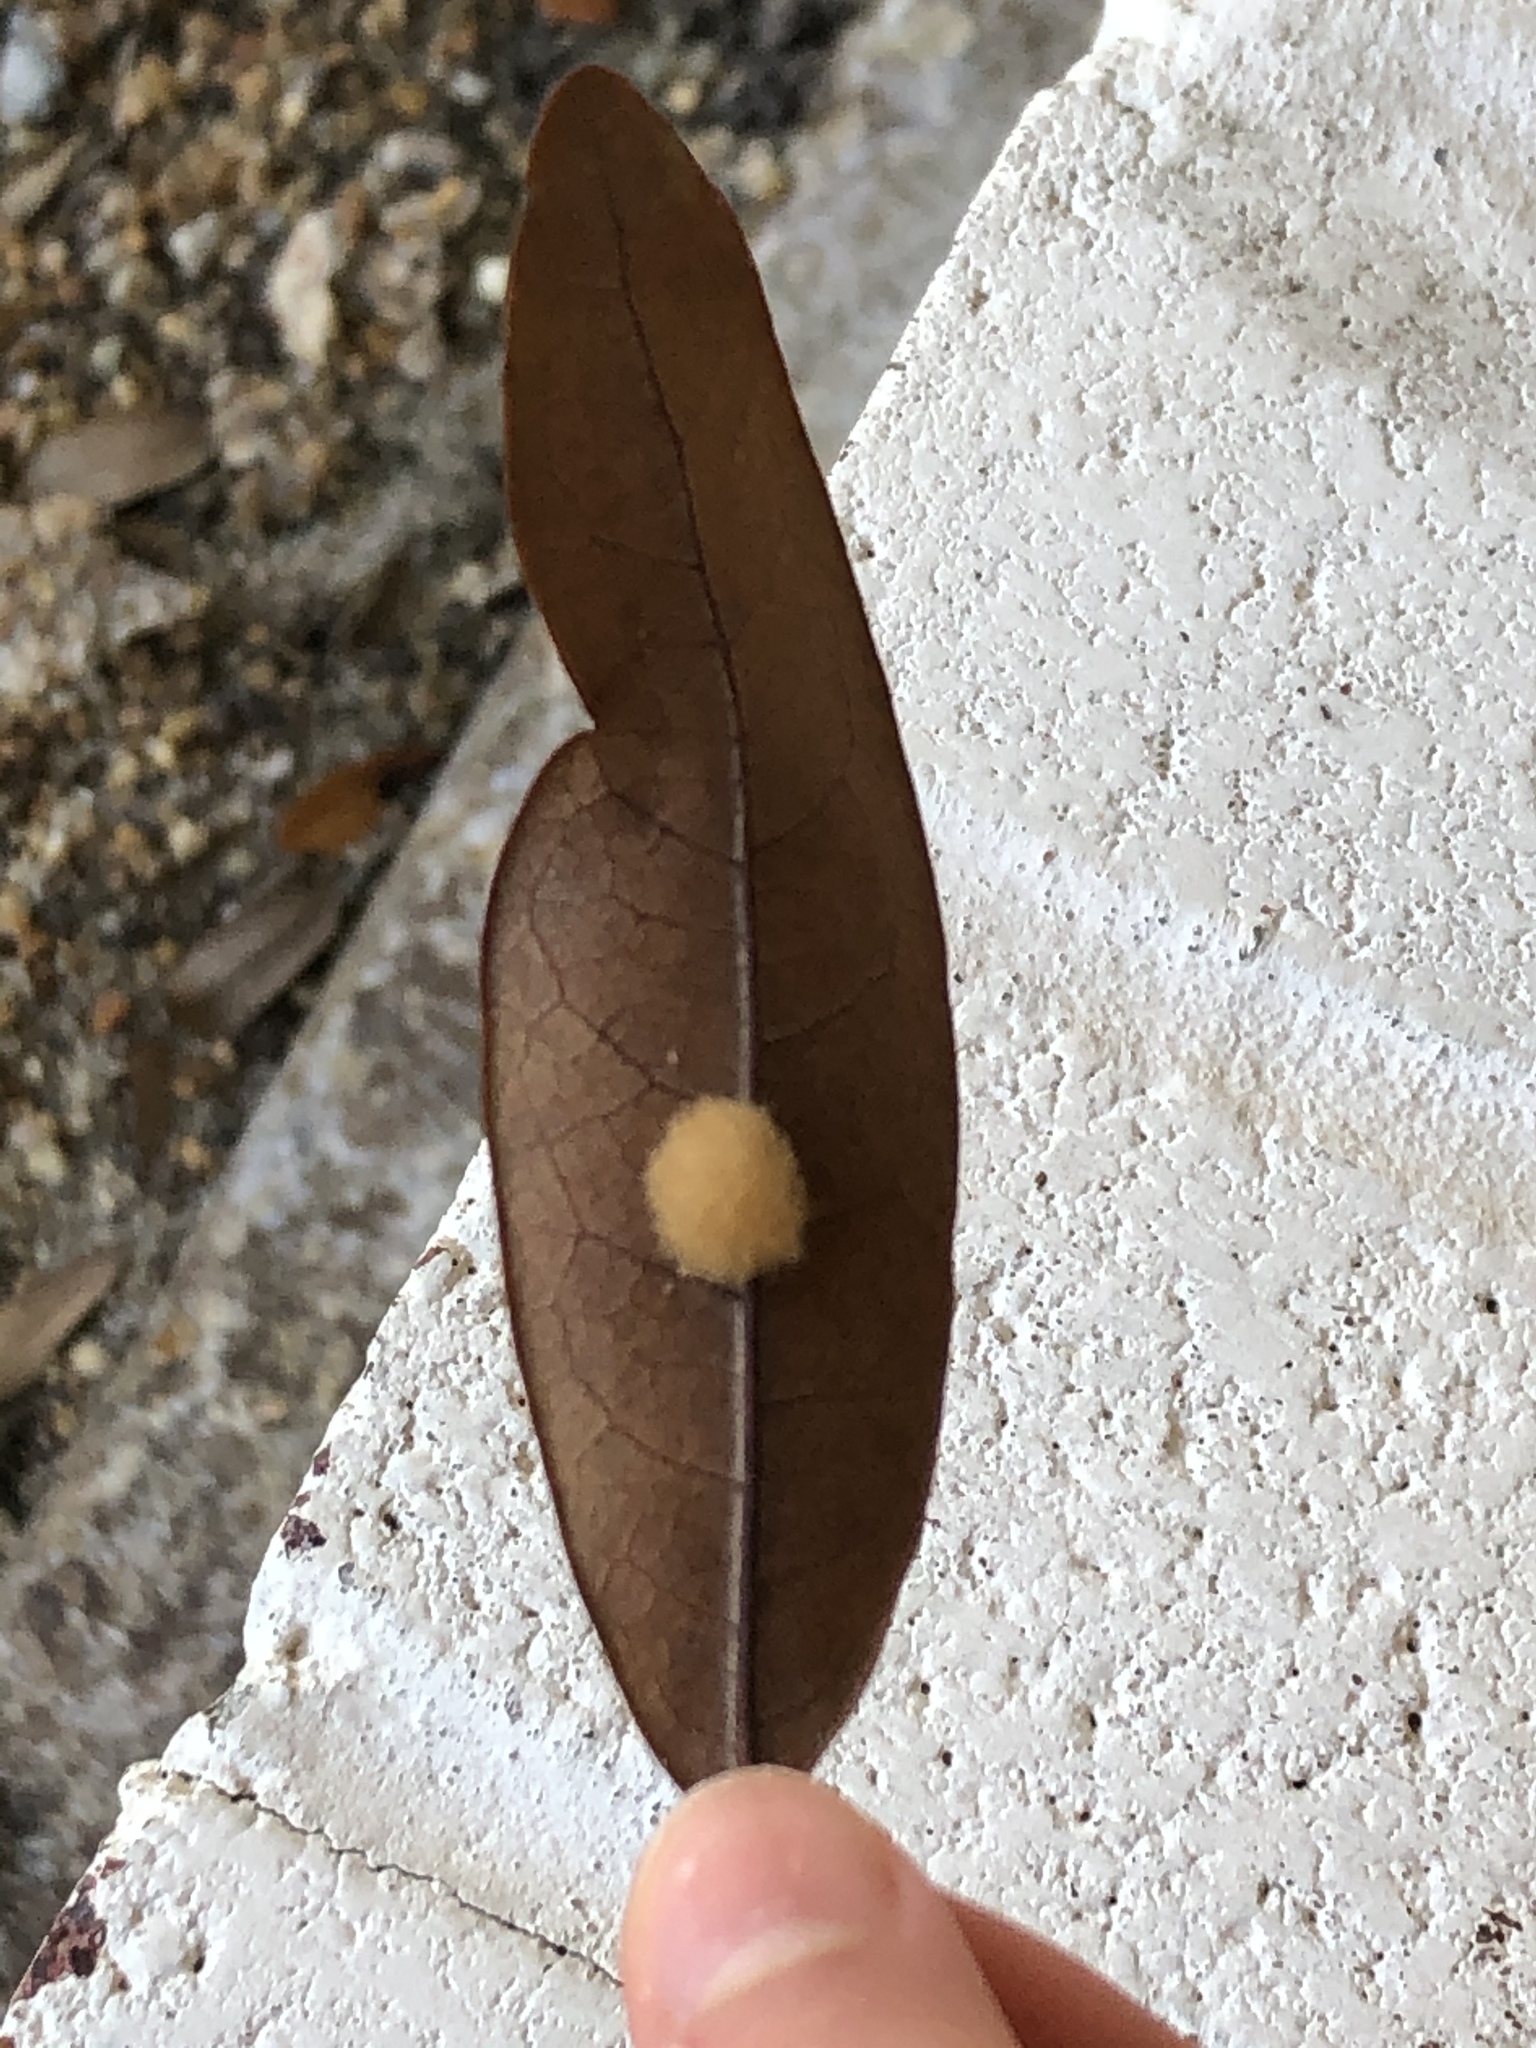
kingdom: Animalia
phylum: Arthropoda
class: Insecta
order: Hymenoptera
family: Cynipidae
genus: Andricus
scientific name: Andricus Druon quercuslanigerum
